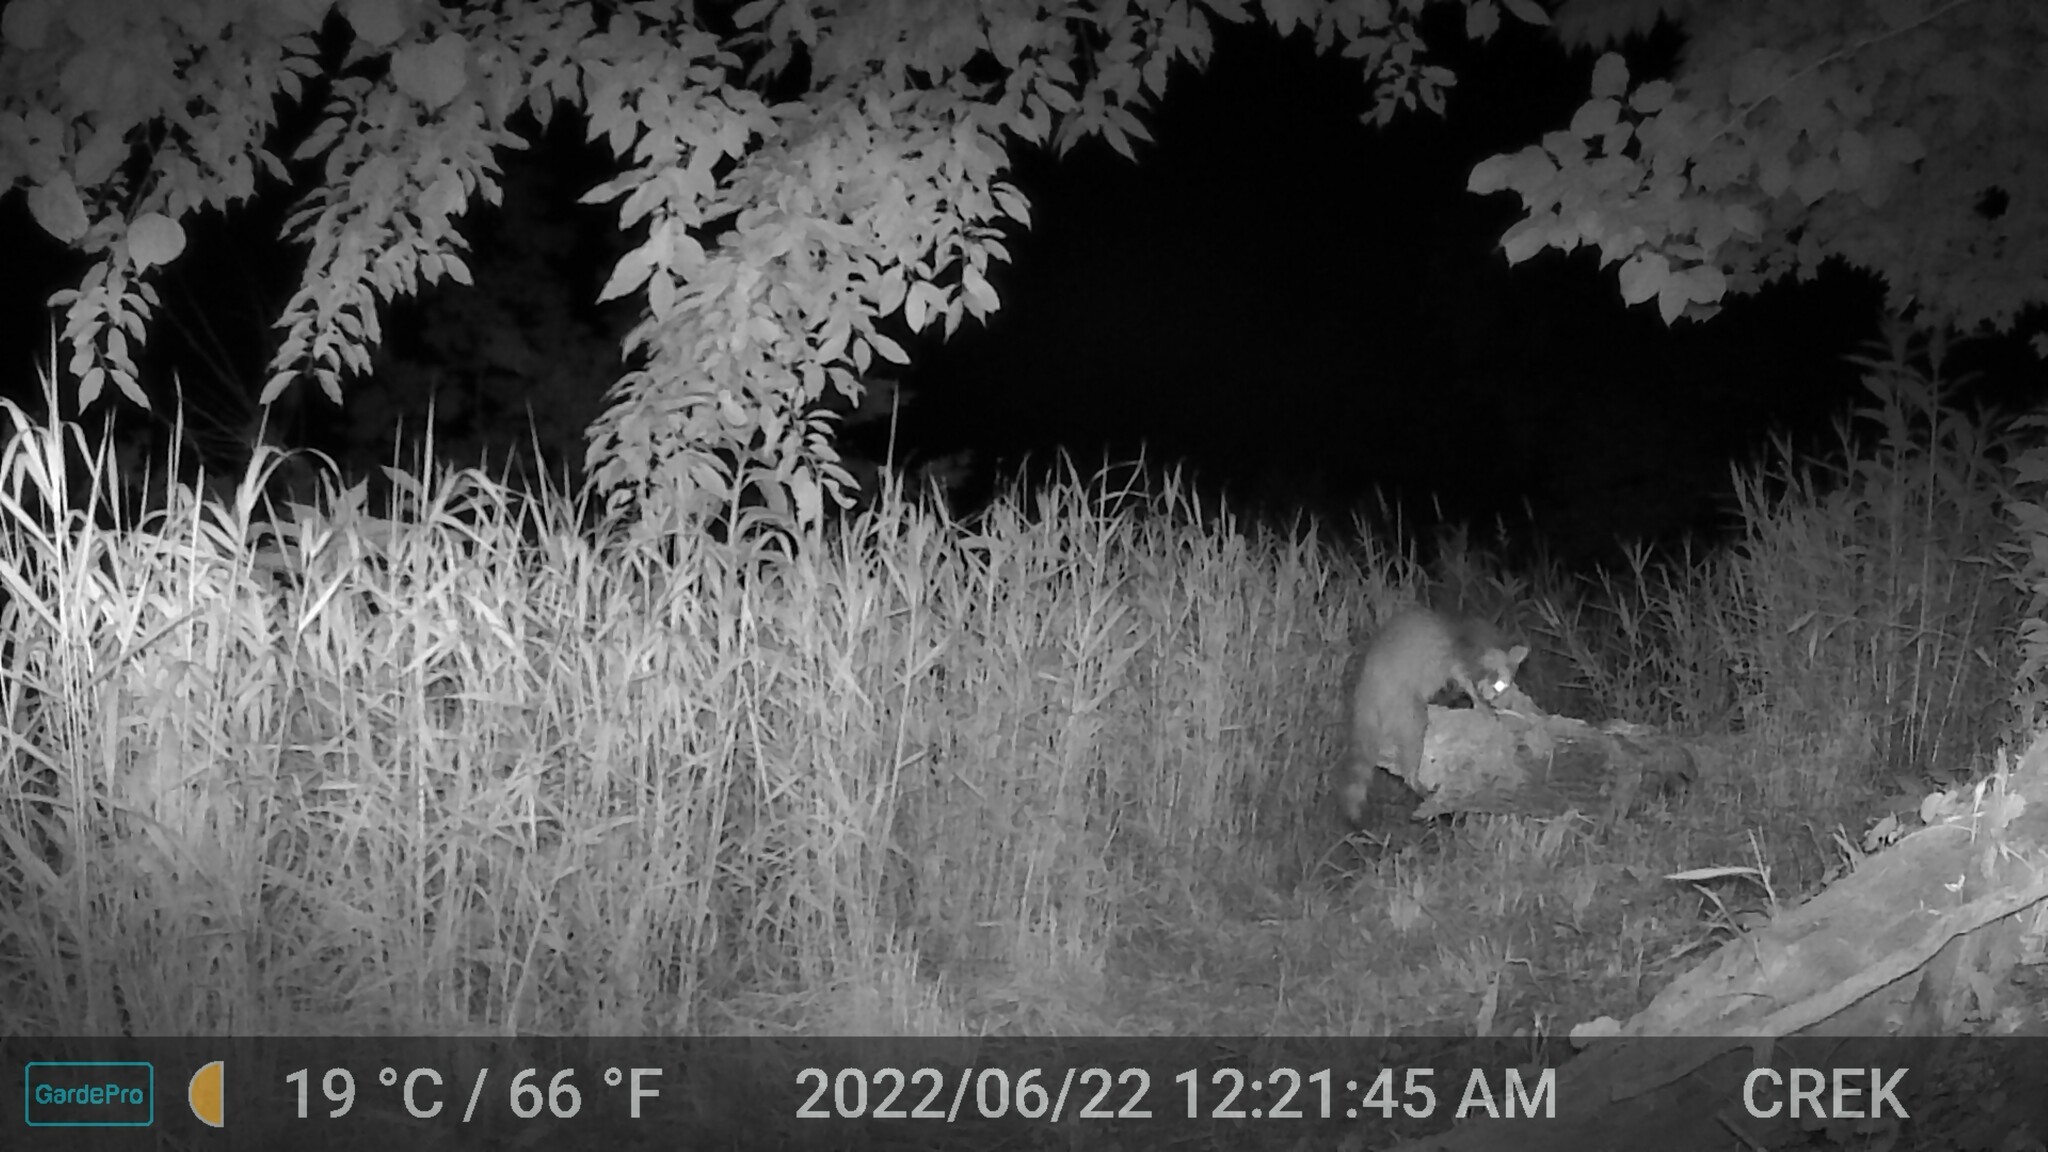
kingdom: Animalia
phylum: Chordata
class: Mammalia
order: Carnivora
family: Procyonidae
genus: Procyon
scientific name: Procyon lotor
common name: Raccoon
